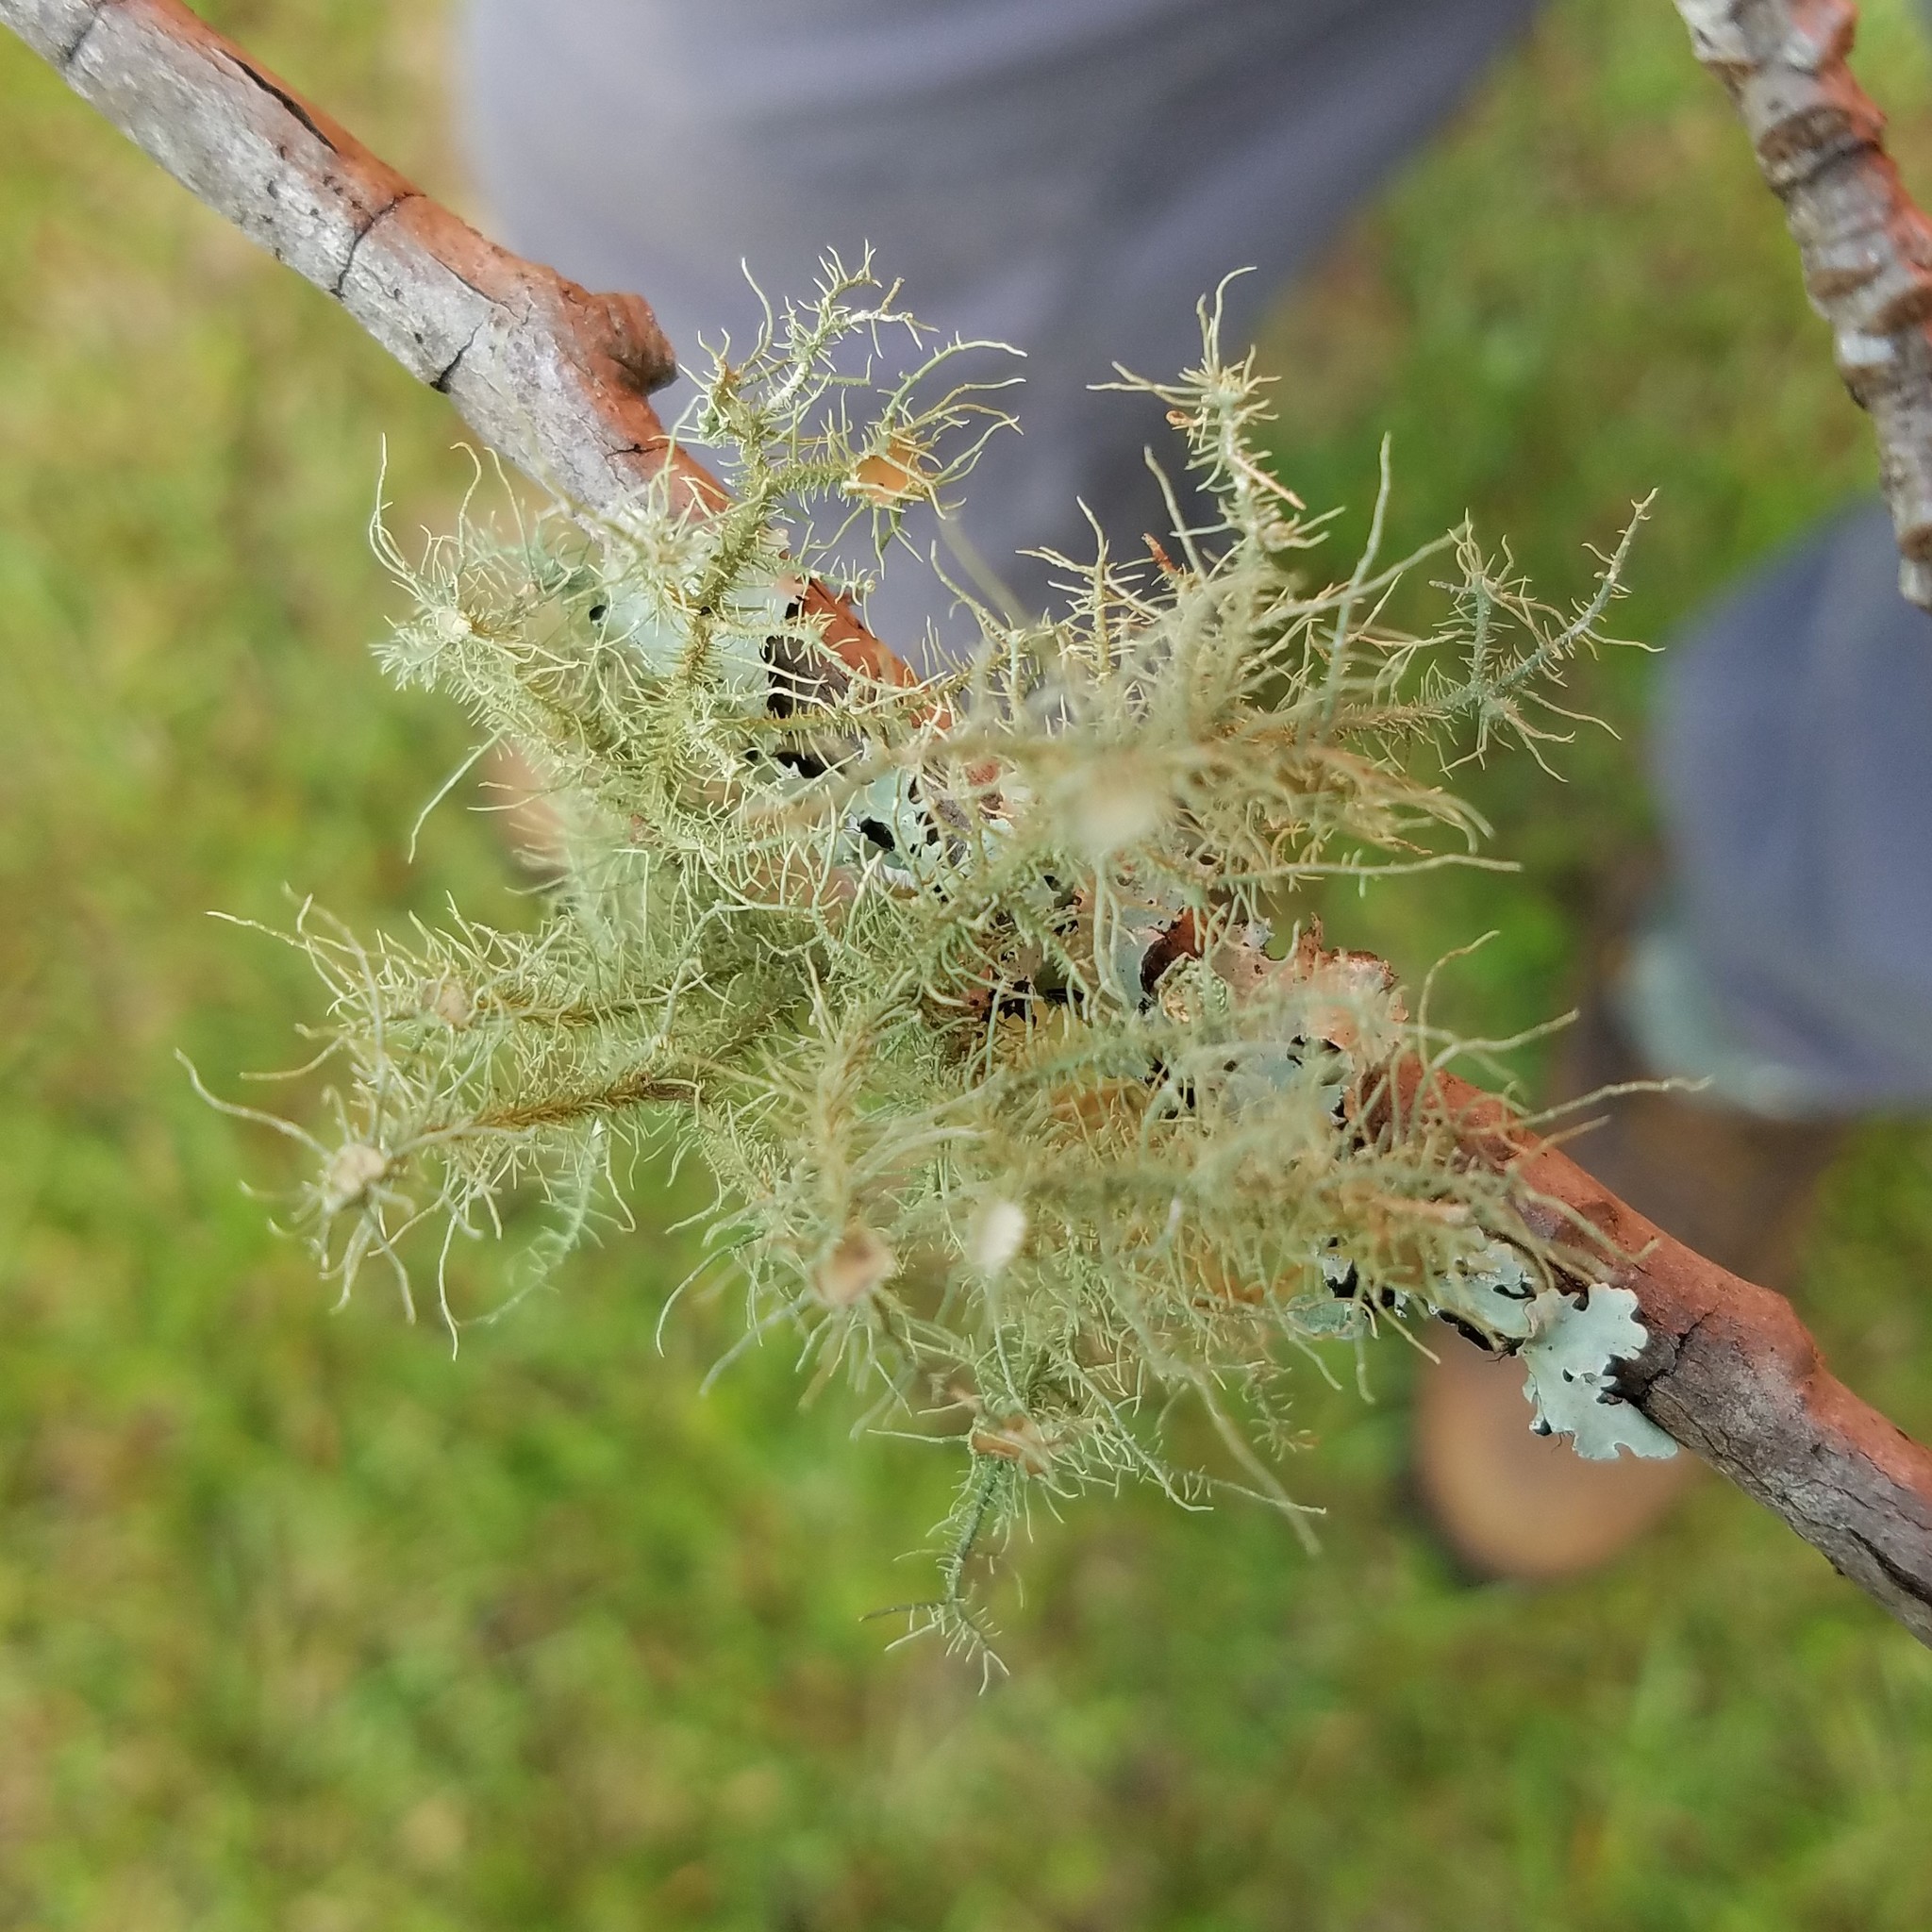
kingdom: Fungi
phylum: Ascomycota
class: Lecanoromycetes
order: Lecanorales
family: Parmeliaceae
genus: Usnea
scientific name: Usnea strigosa
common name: Bushy beard lichen
